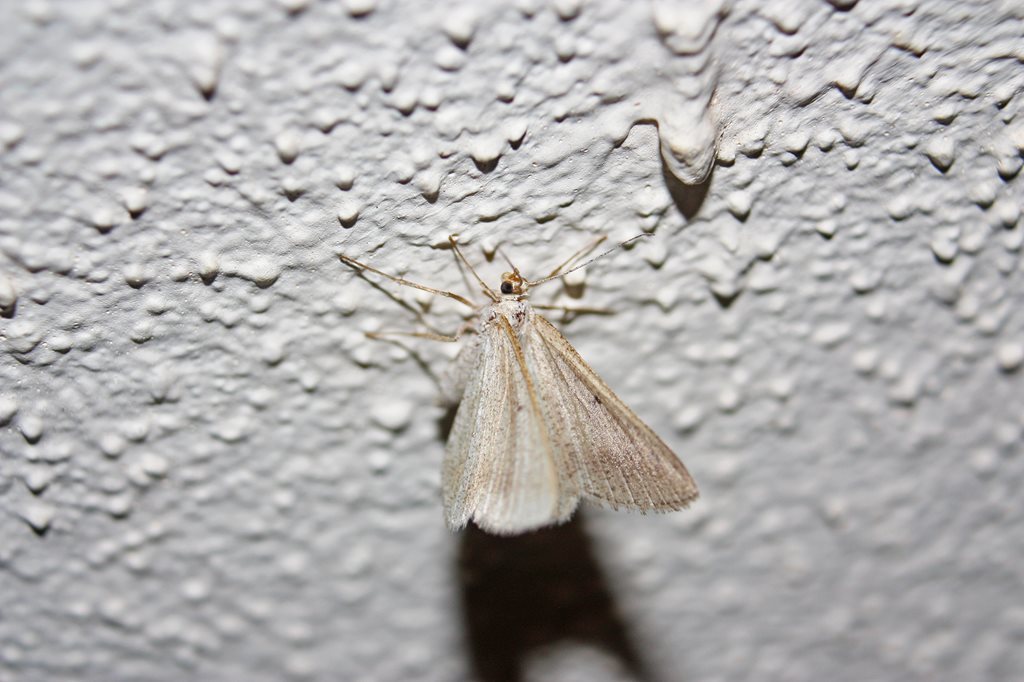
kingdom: Animalia
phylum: Arthropoda
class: Insecta
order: Lepidoptera
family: Geometridae
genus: Hypomecis
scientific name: Hypomecis clarissa
